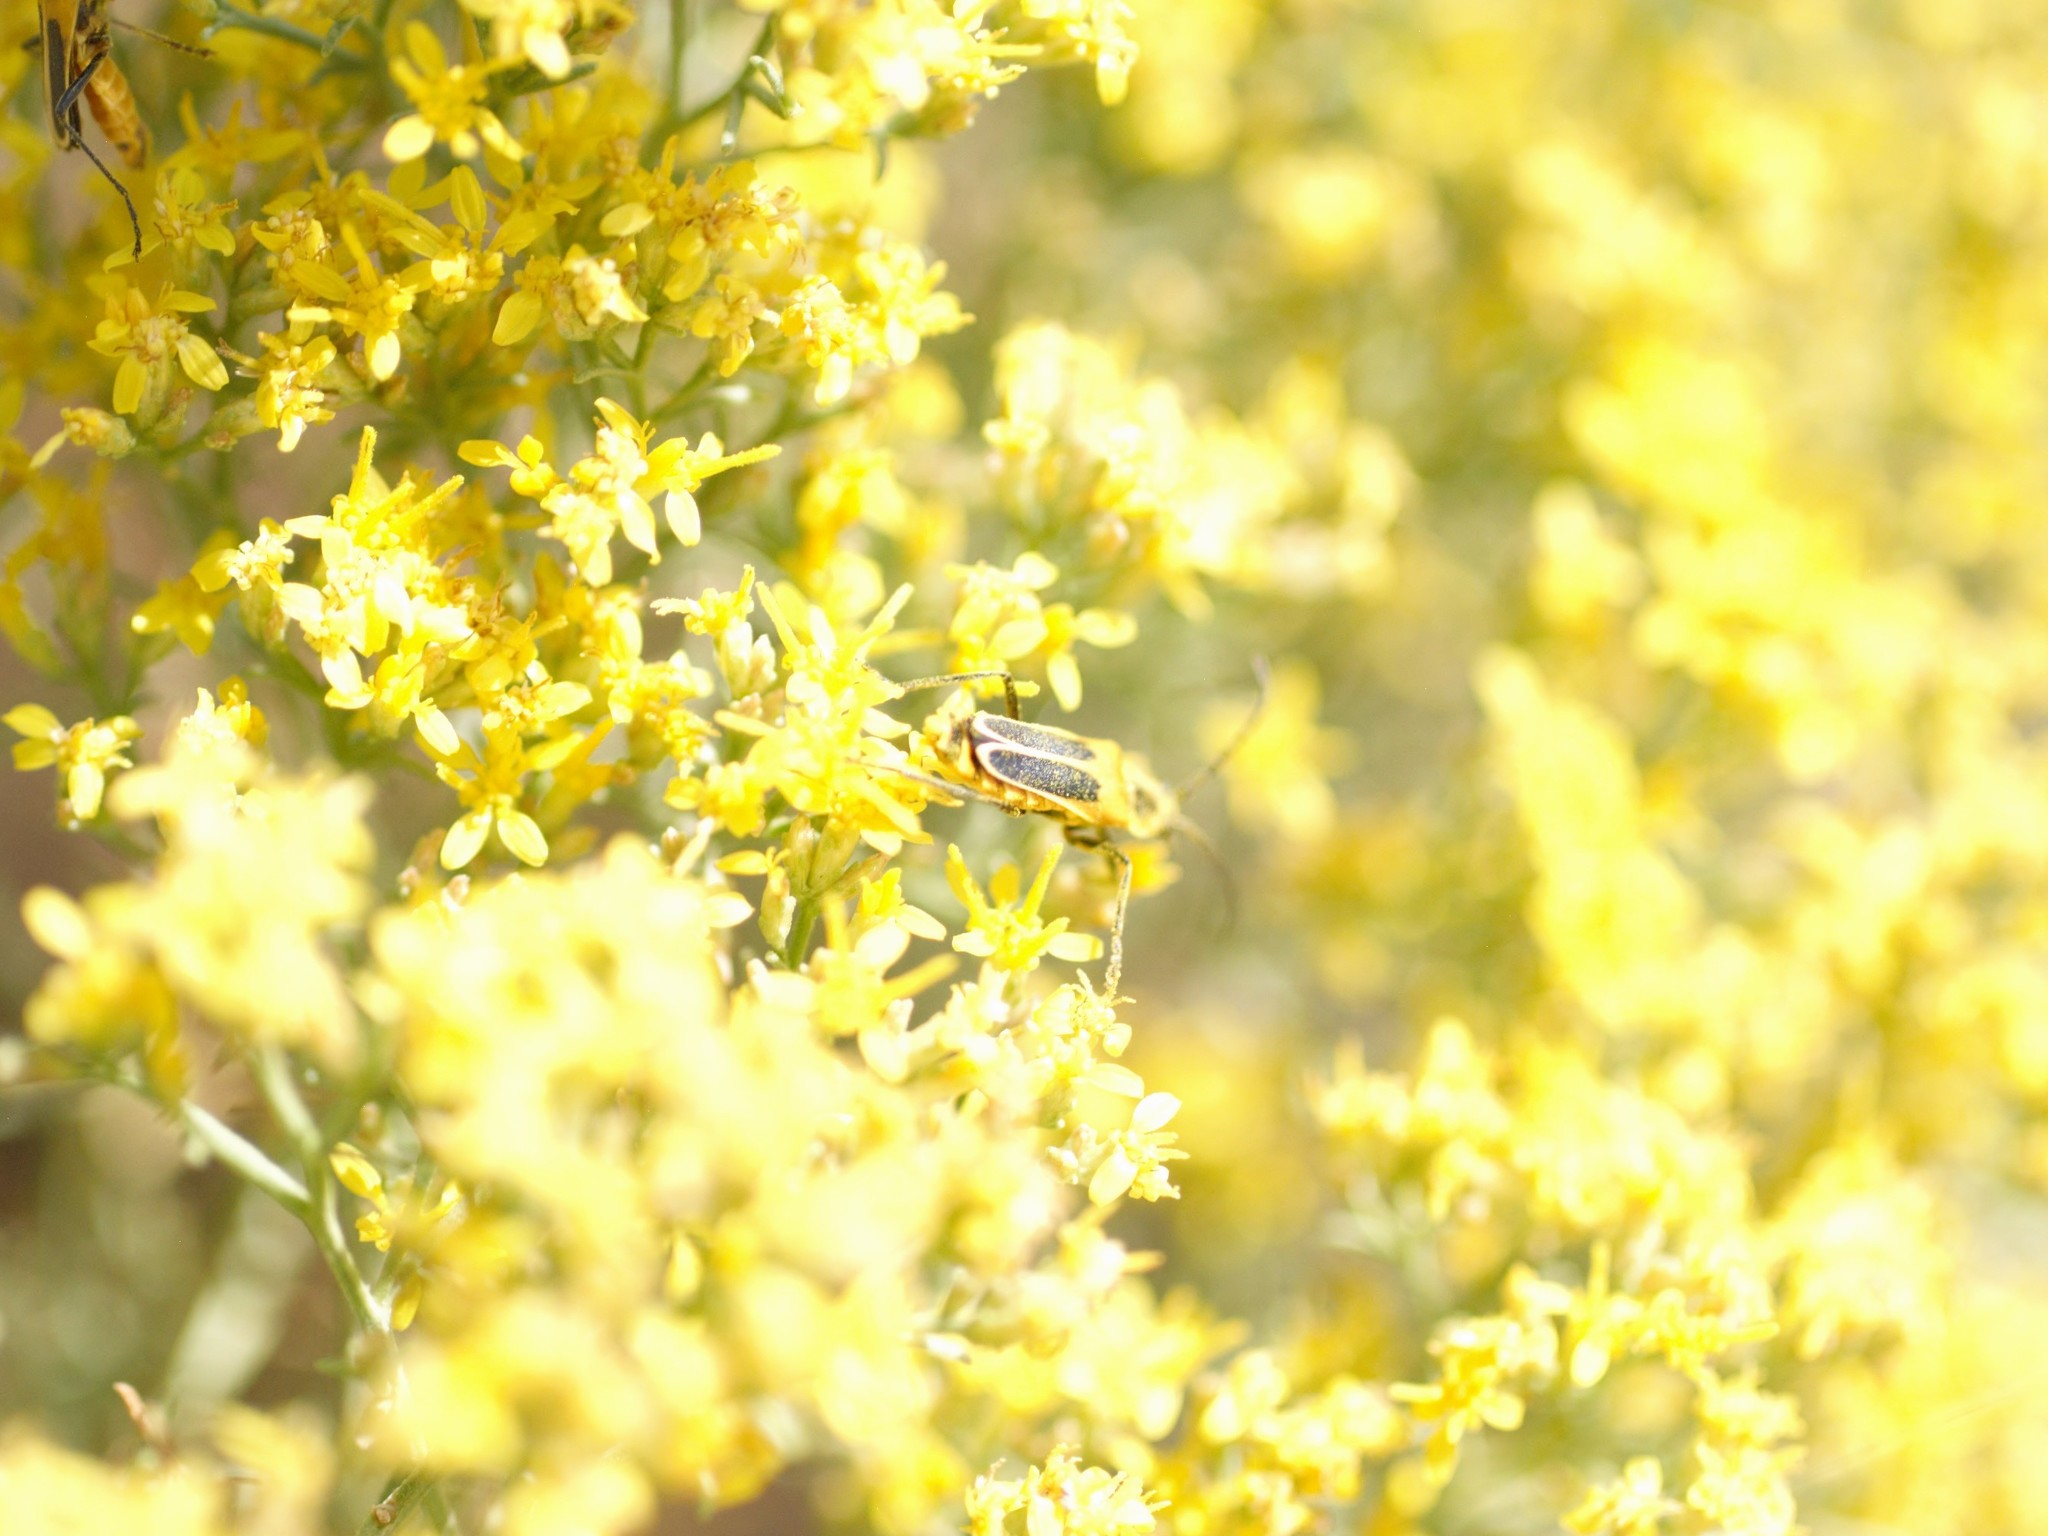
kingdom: Animalia
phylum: Arthropoda
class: Insecta
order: Coleoptera
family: Cantharidae
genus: Chauliognathus
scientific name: Chauliognathus lewisi
